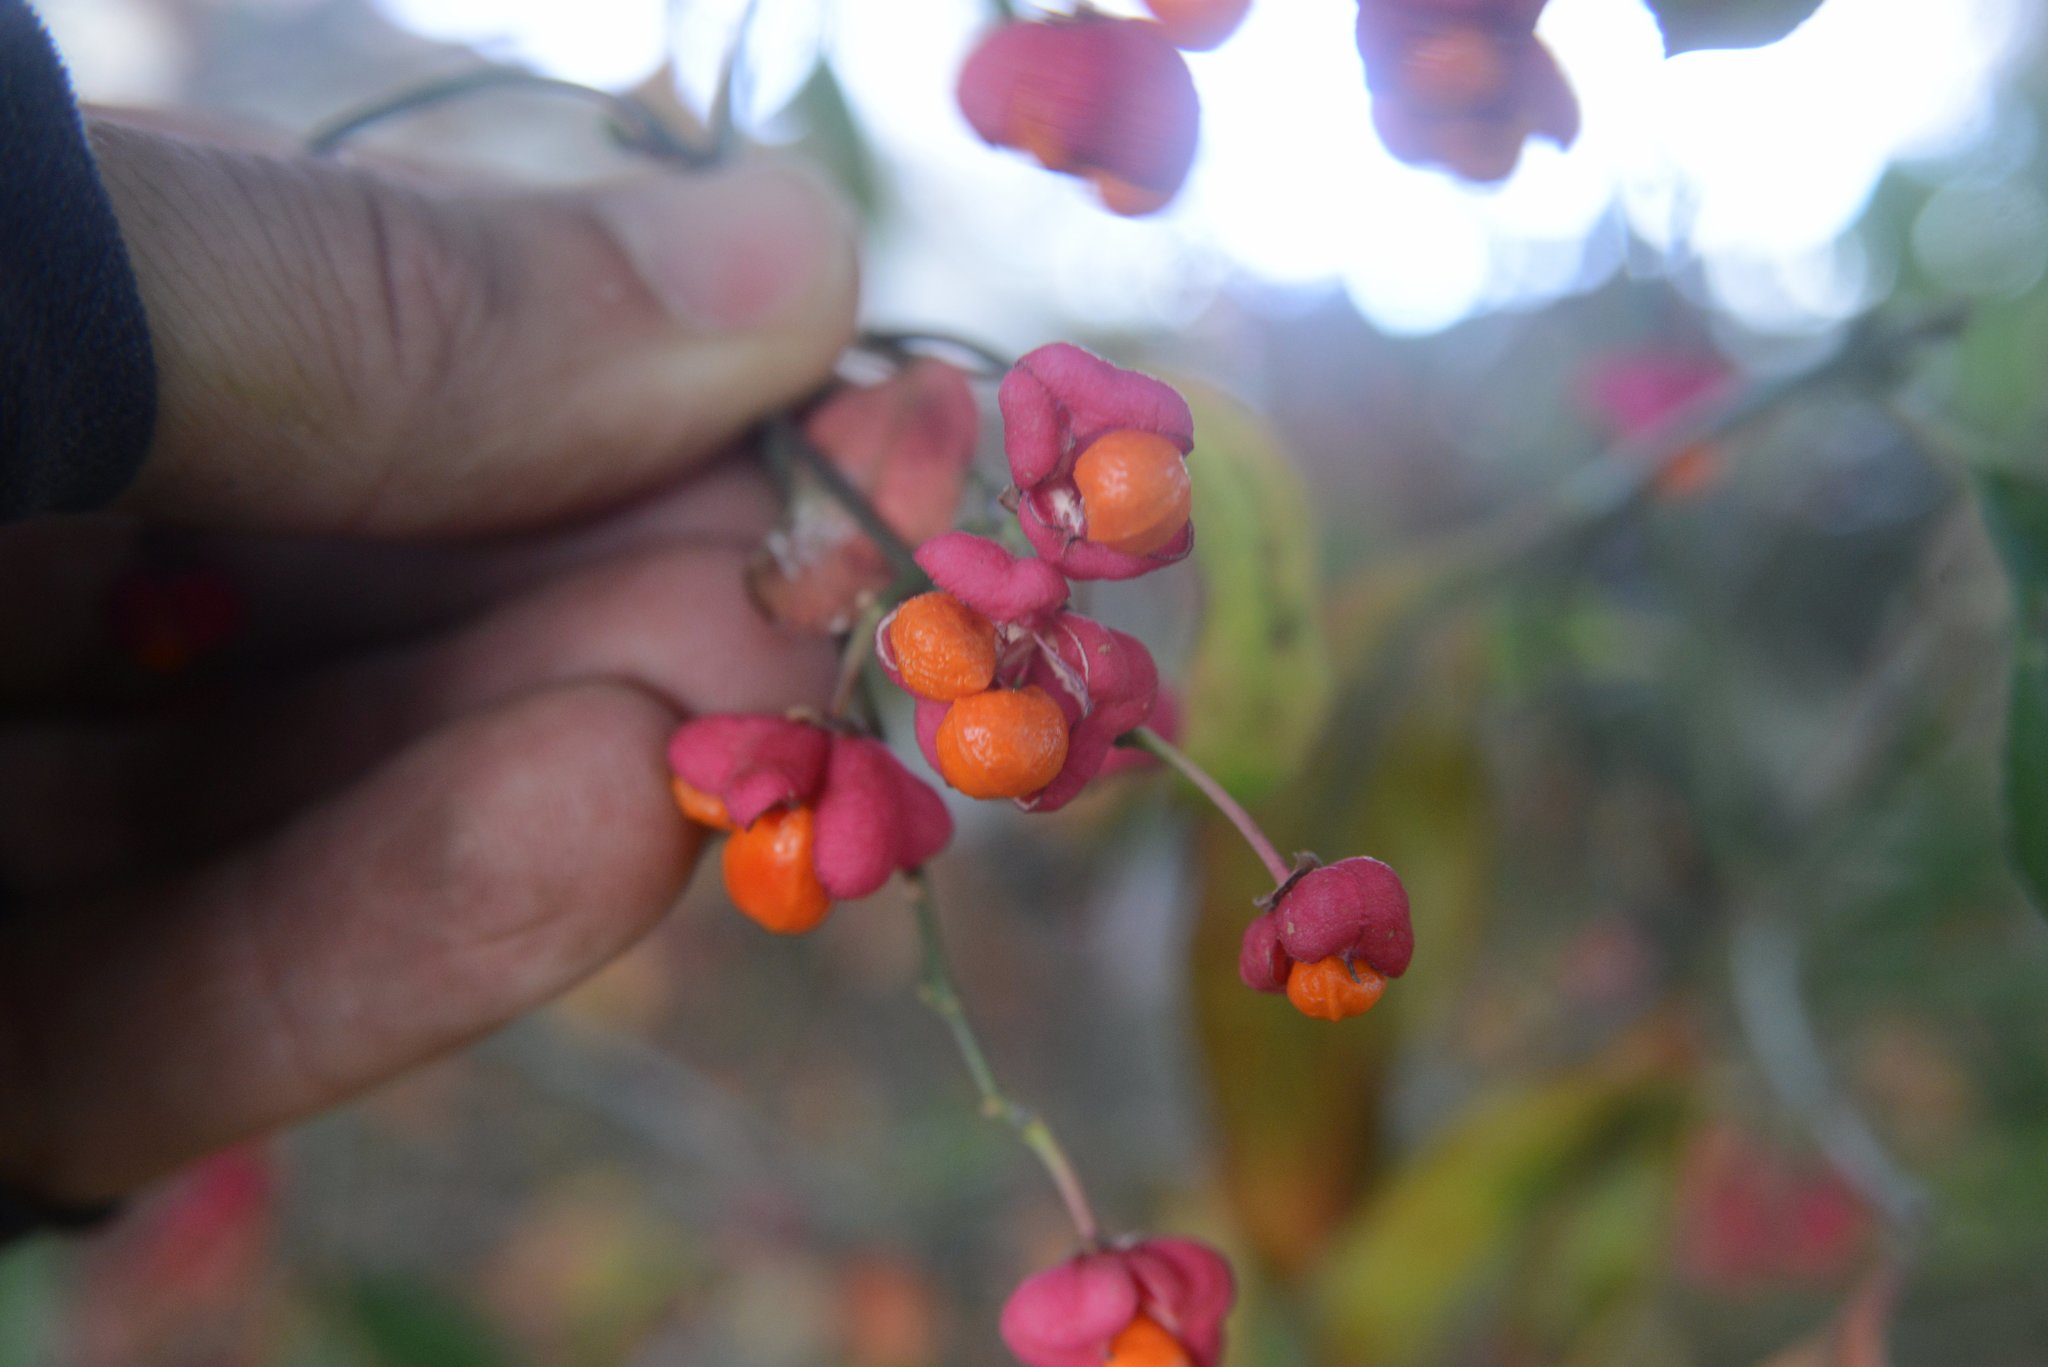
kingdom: Plantae
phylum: Tracheophyta
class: Magnoliopsida
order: Celastrales
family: Celastraceae
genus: Euonymus
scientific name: Euonymus europaeus
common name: Spindle
